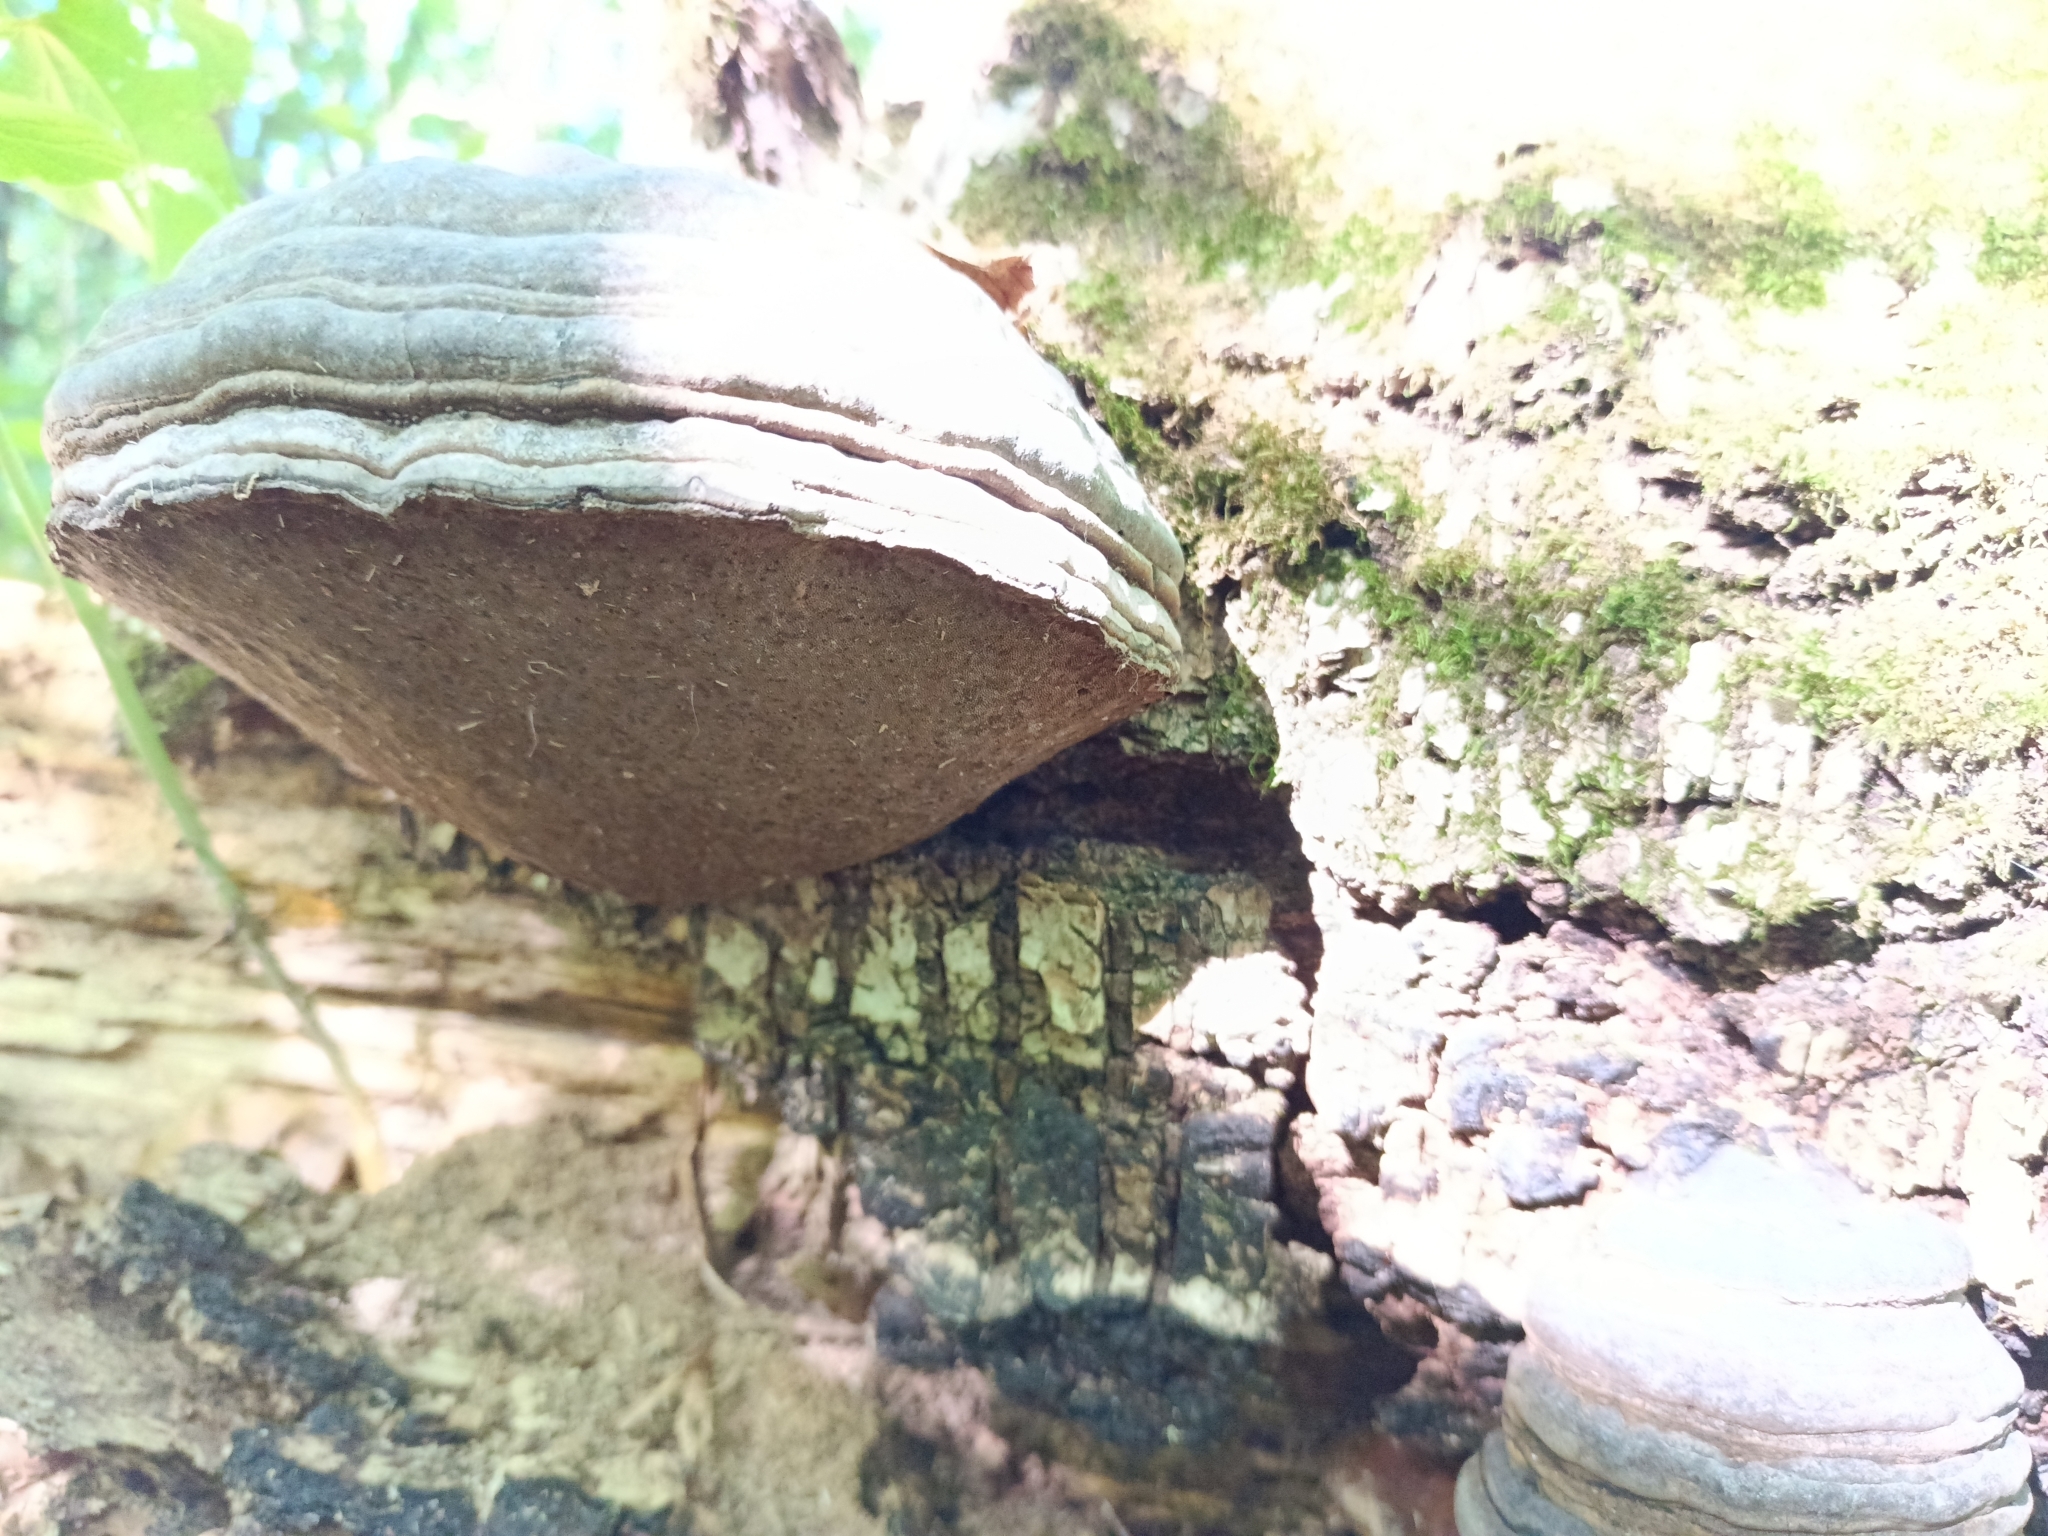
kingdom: Fungi
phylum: Basidiomycota
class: Agaricomycetes
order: Polyporales
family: Polyporaceae
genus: Fomes
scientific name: Fomes fomentarius
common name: Hoof fungus
